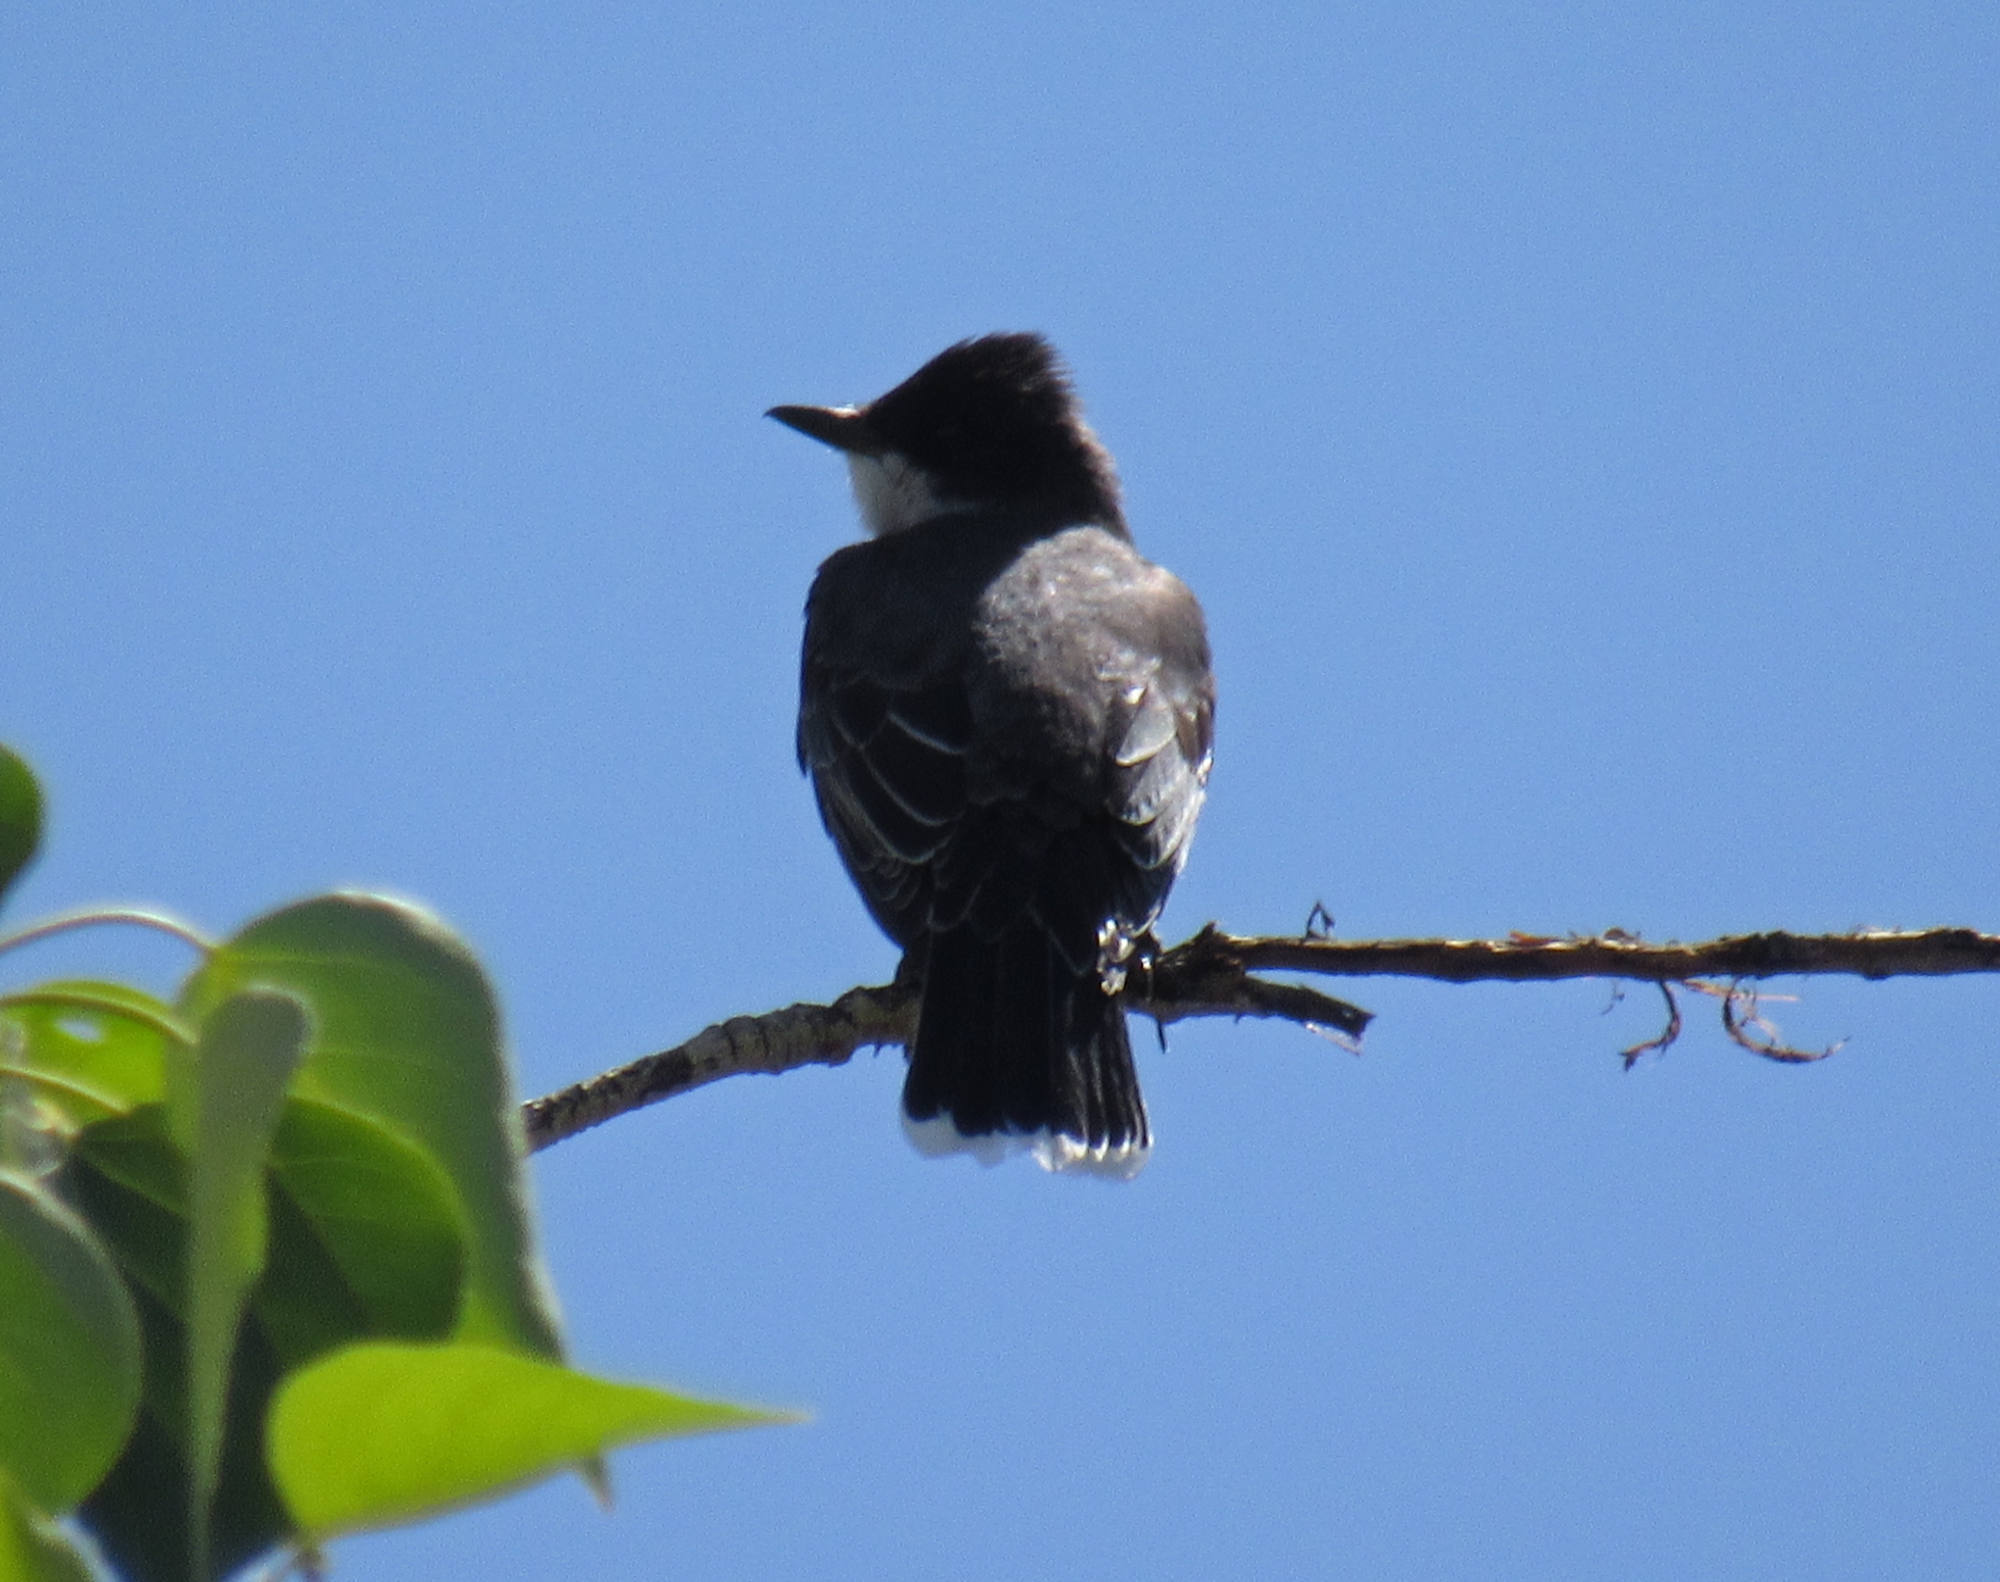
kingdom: Animalia
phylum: Chordata
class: Aves
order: Passeriformes
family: Tyrannidae
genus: Tyrannus
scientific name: Tyrannus tyrannus
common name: Eastern kingbird
